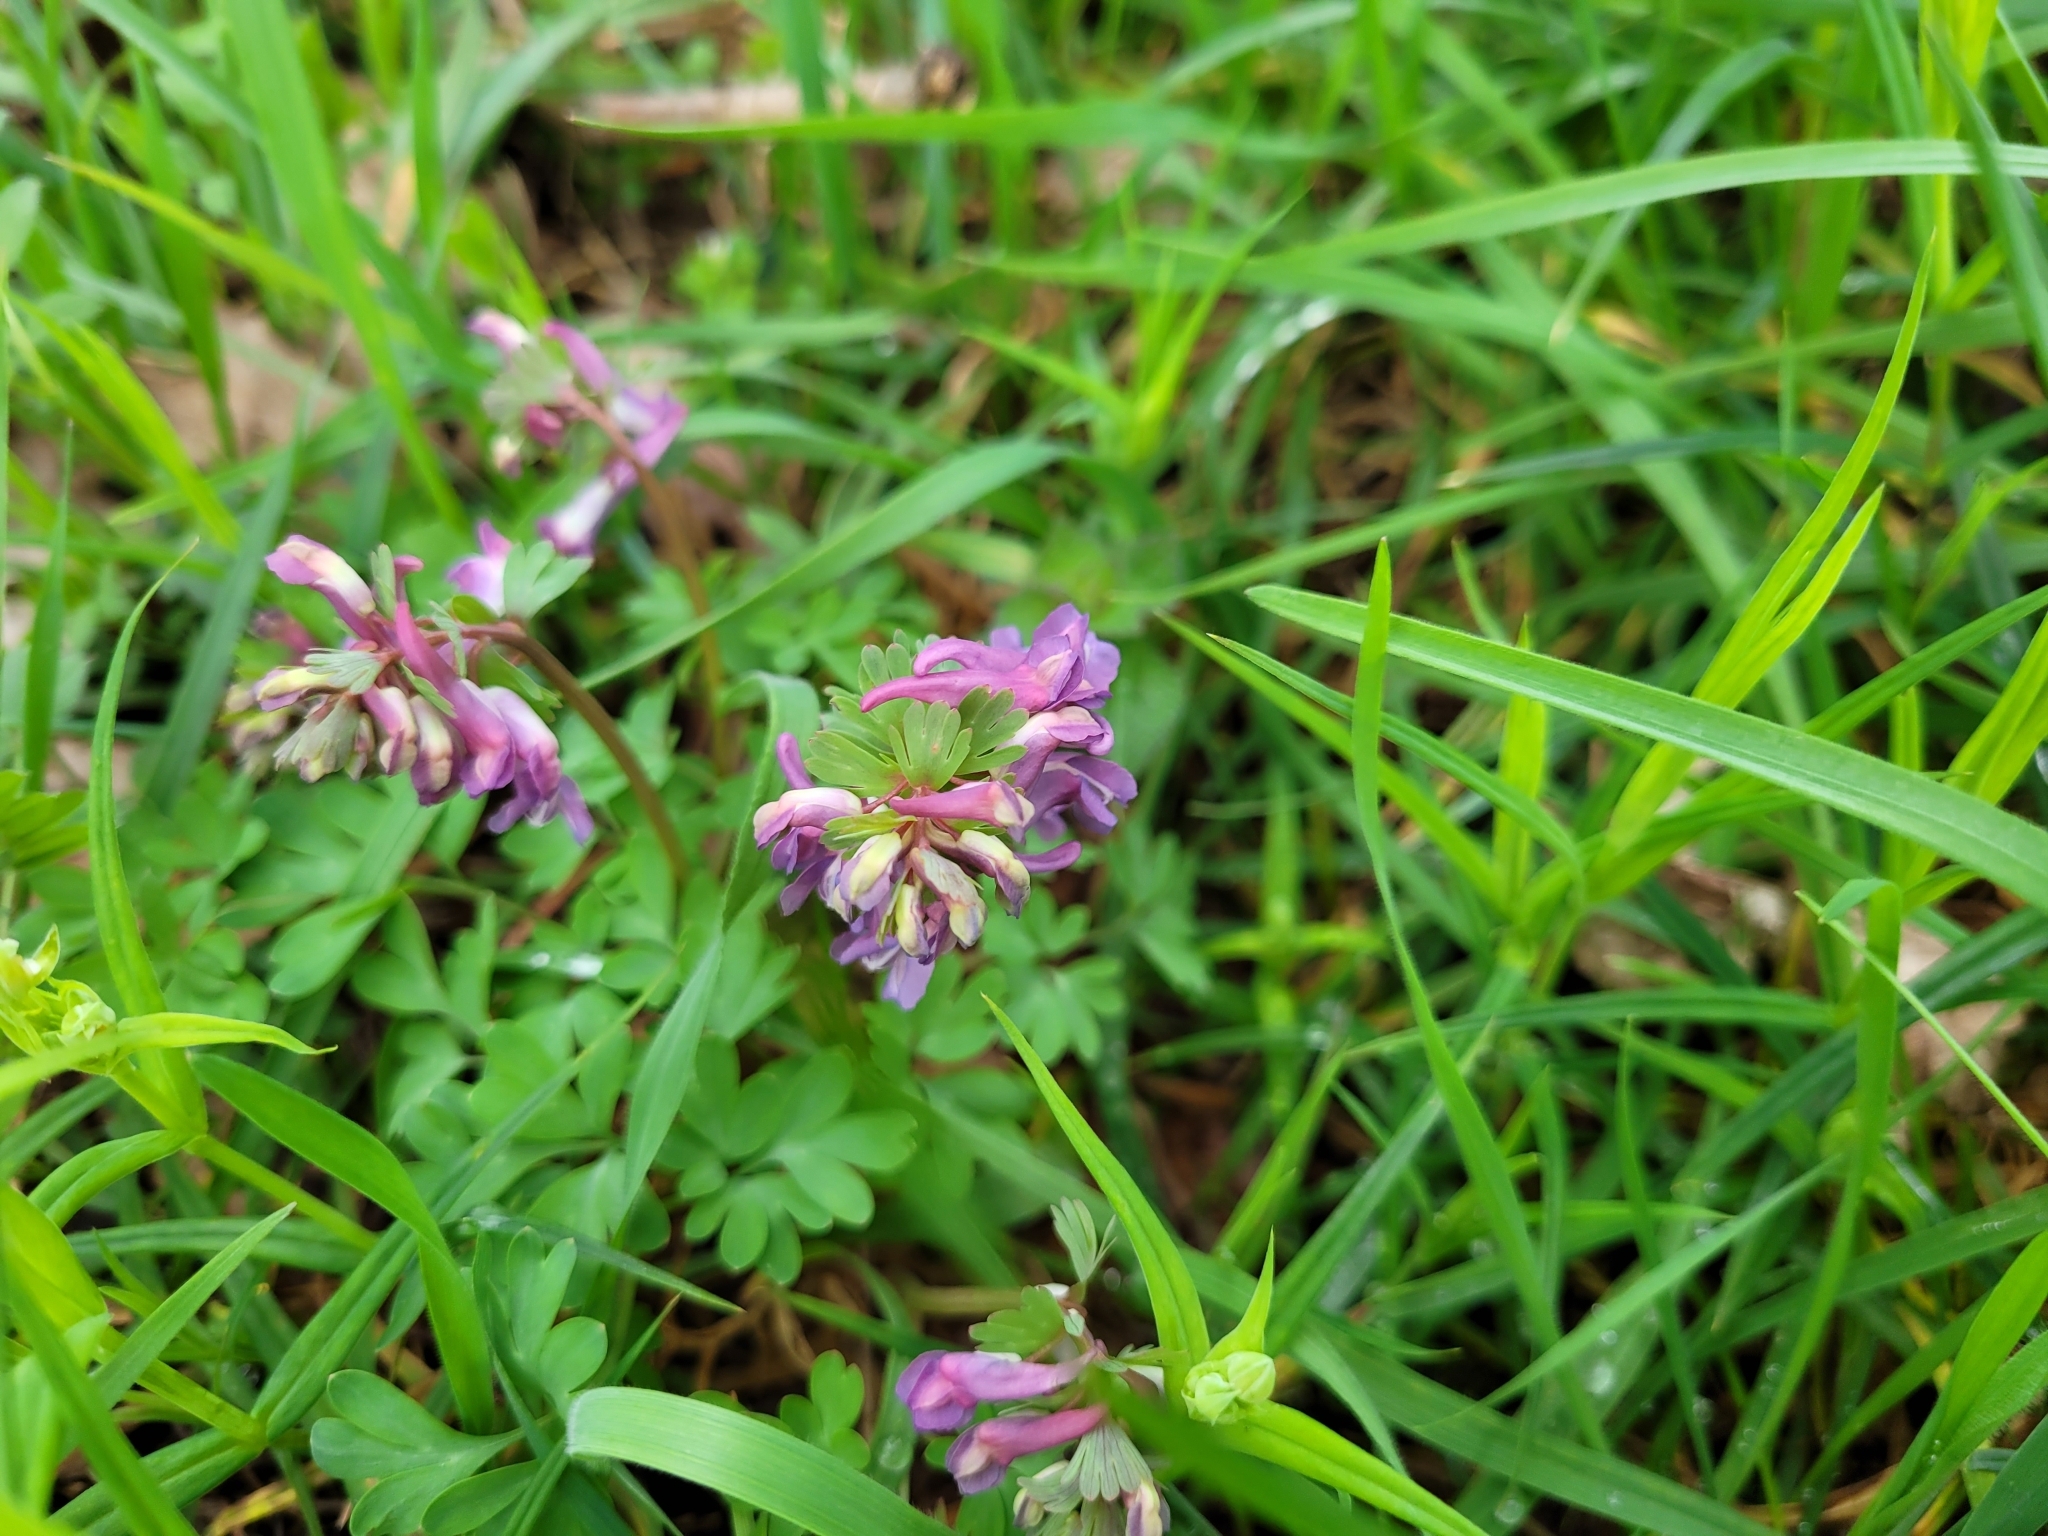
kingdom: Plantae
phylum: Tracheophyta
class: Magnoliopsida
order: Ranunculales
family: Papaveraceae
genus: Corydalis
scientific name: Corydalis solida
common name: Bird-in-a-bush
